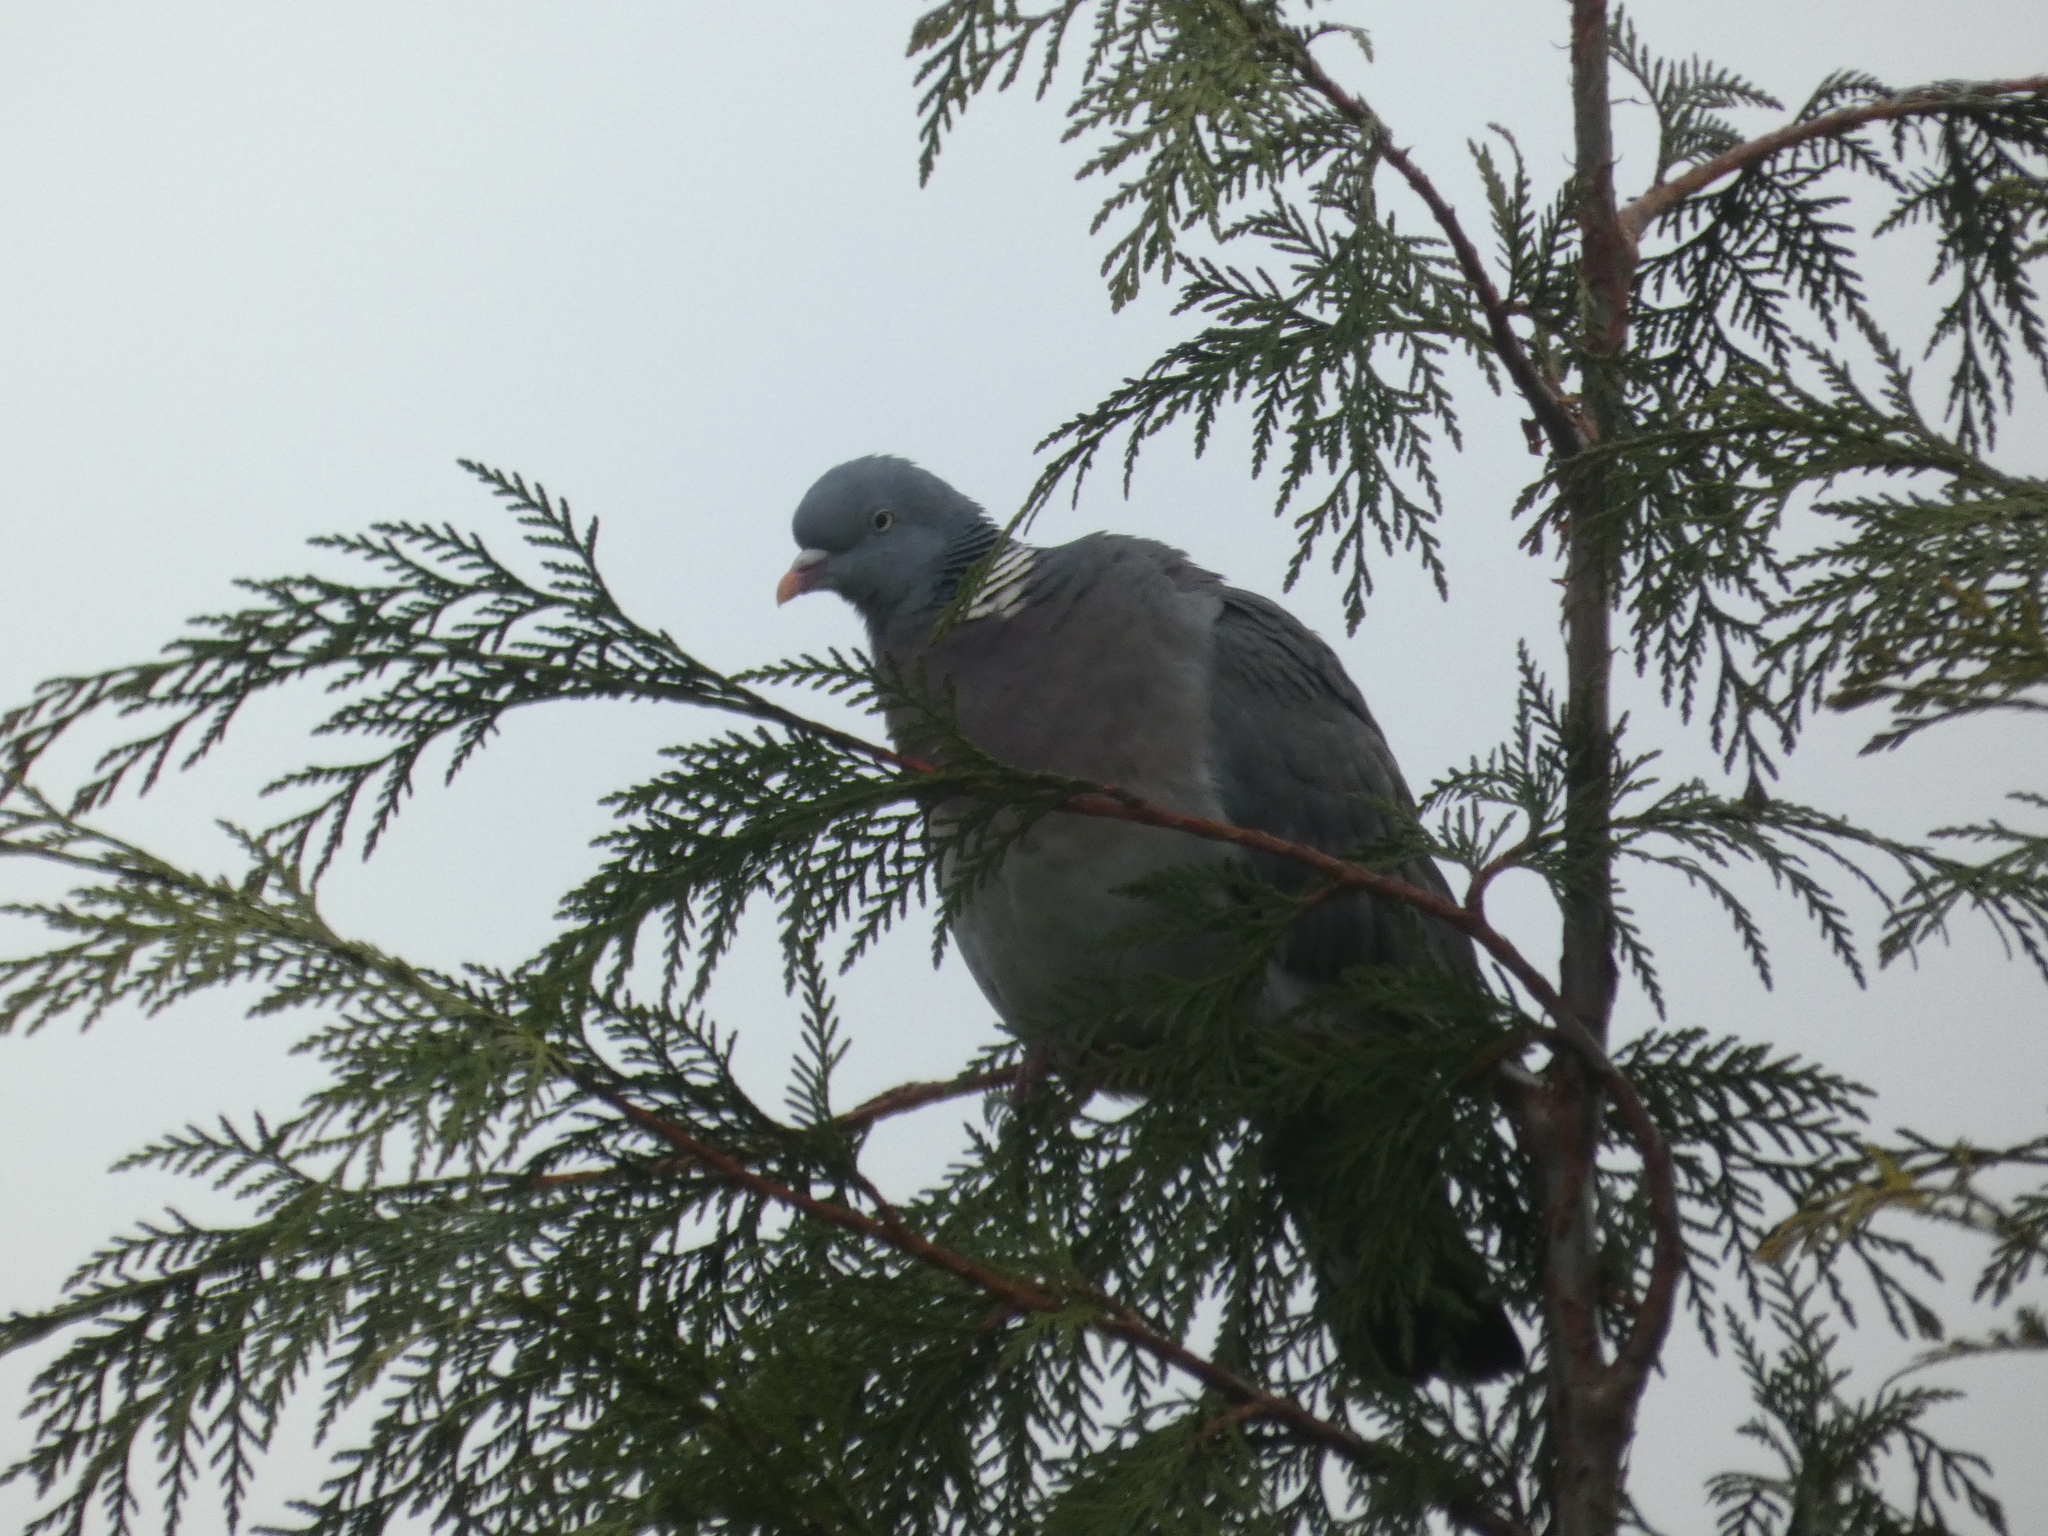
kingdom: Animalia
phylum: Chordata
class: Aves
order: Columbiformes
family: Columbidae
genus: Columba
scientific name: Columba palumbus
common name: Common wood pigeon
